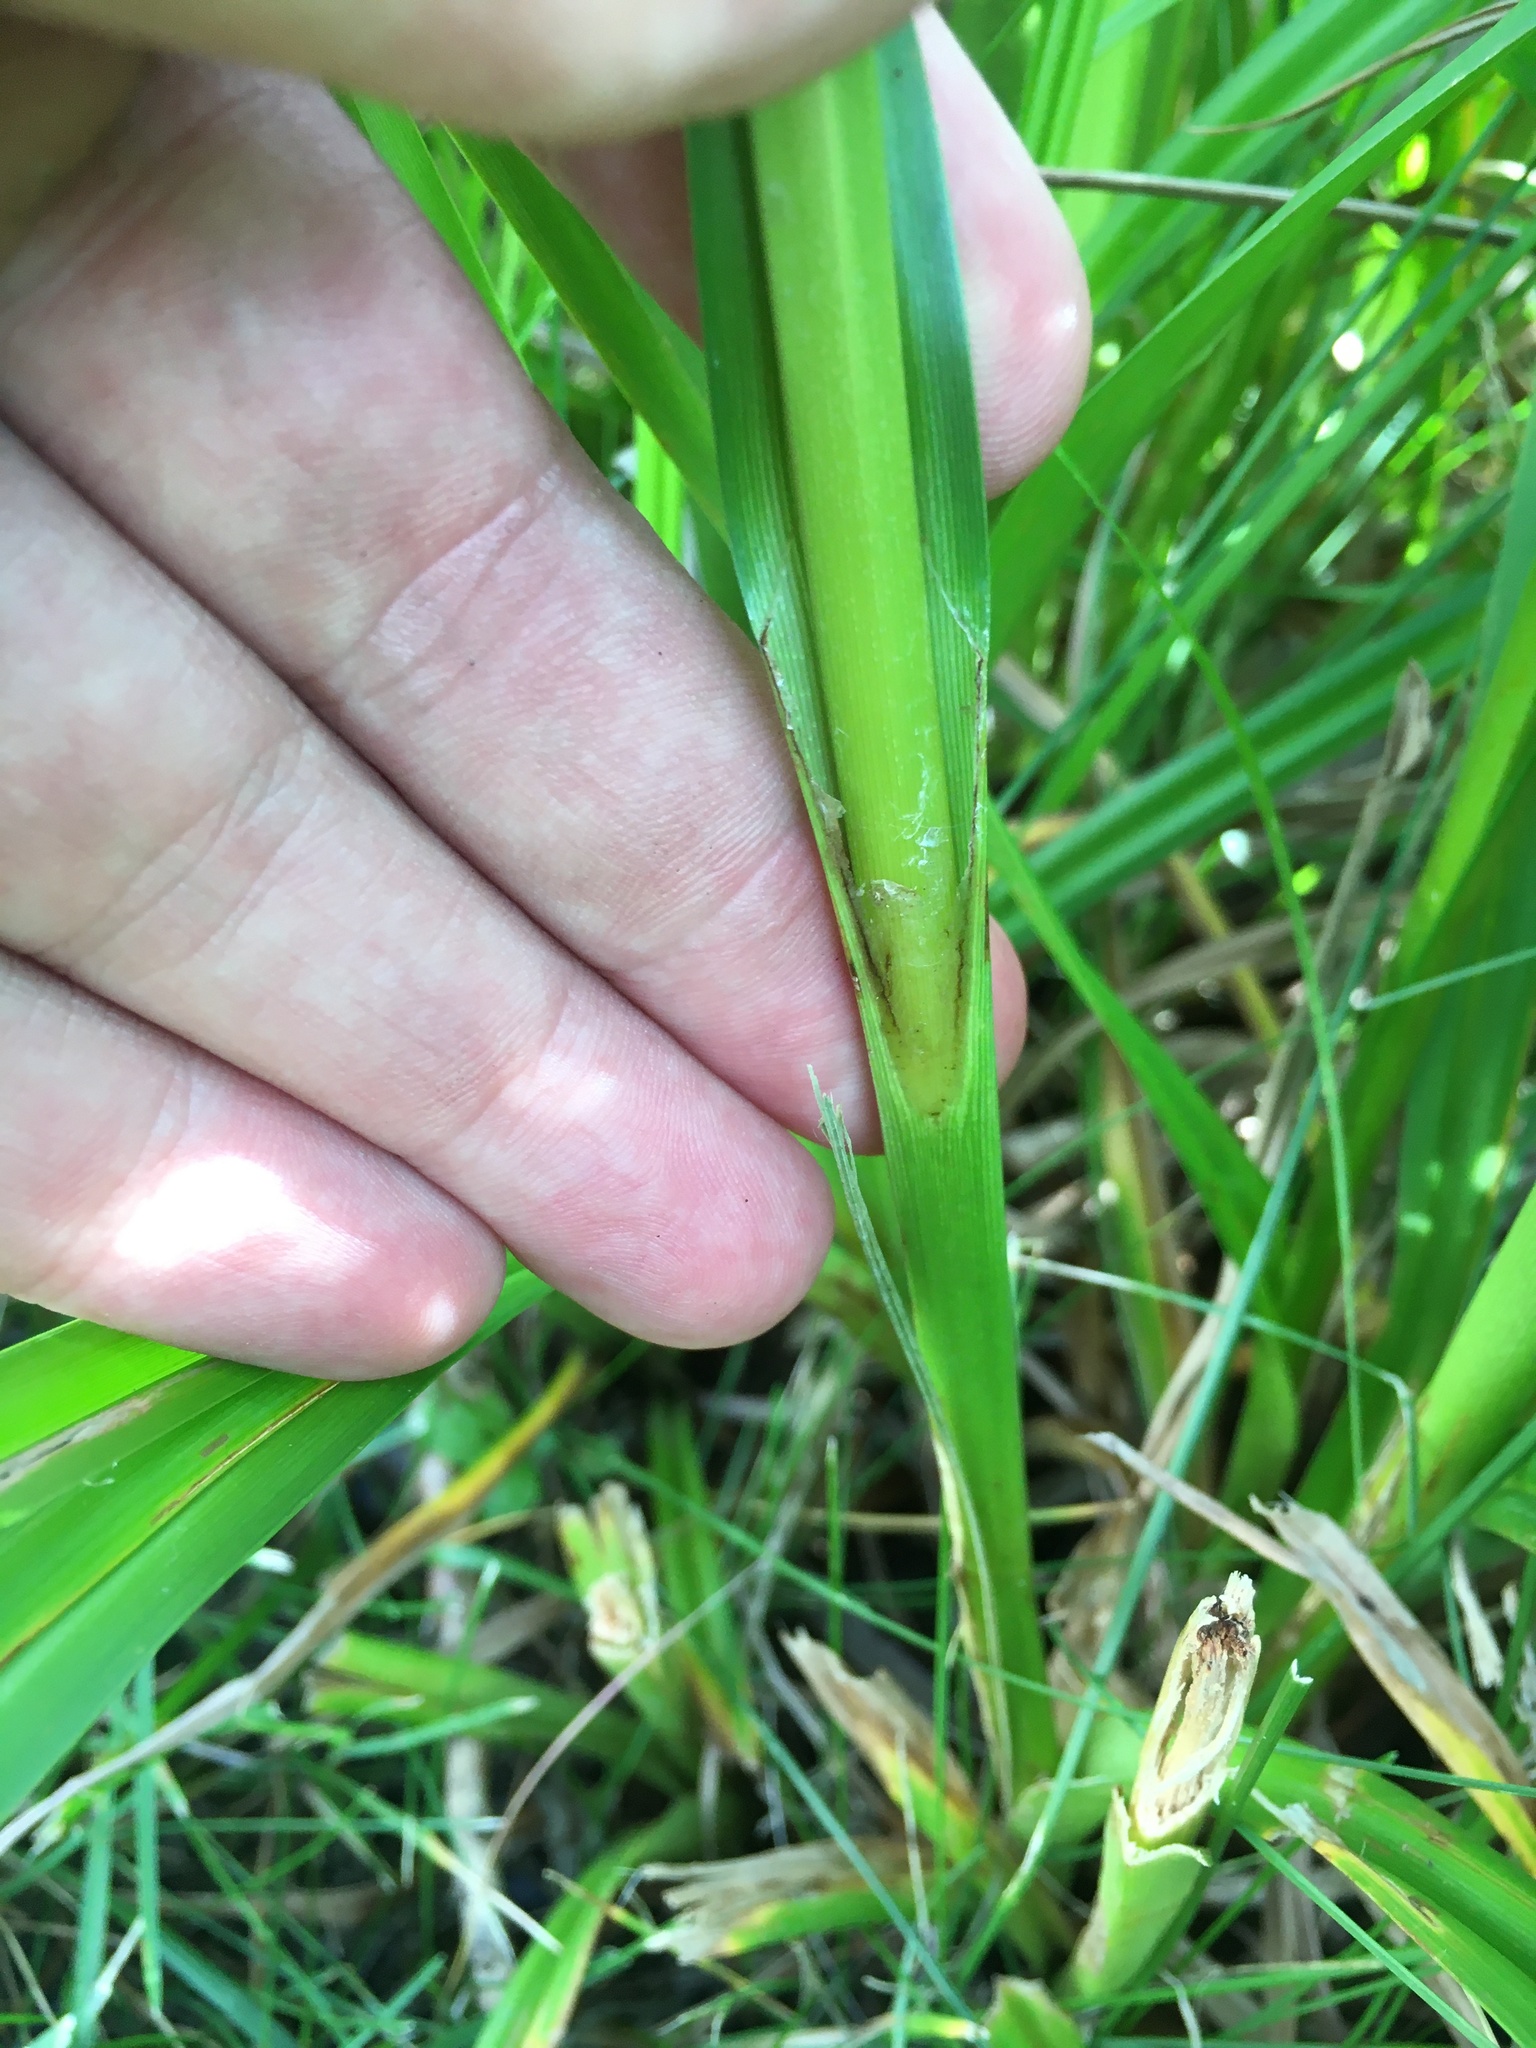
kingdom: Plantae
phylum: Tracheophyta
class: Liliopsida
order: Poales
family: Cyperaceae
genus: Scirpus
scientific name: Scirpus pallidus
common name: Cloaked bulrush
